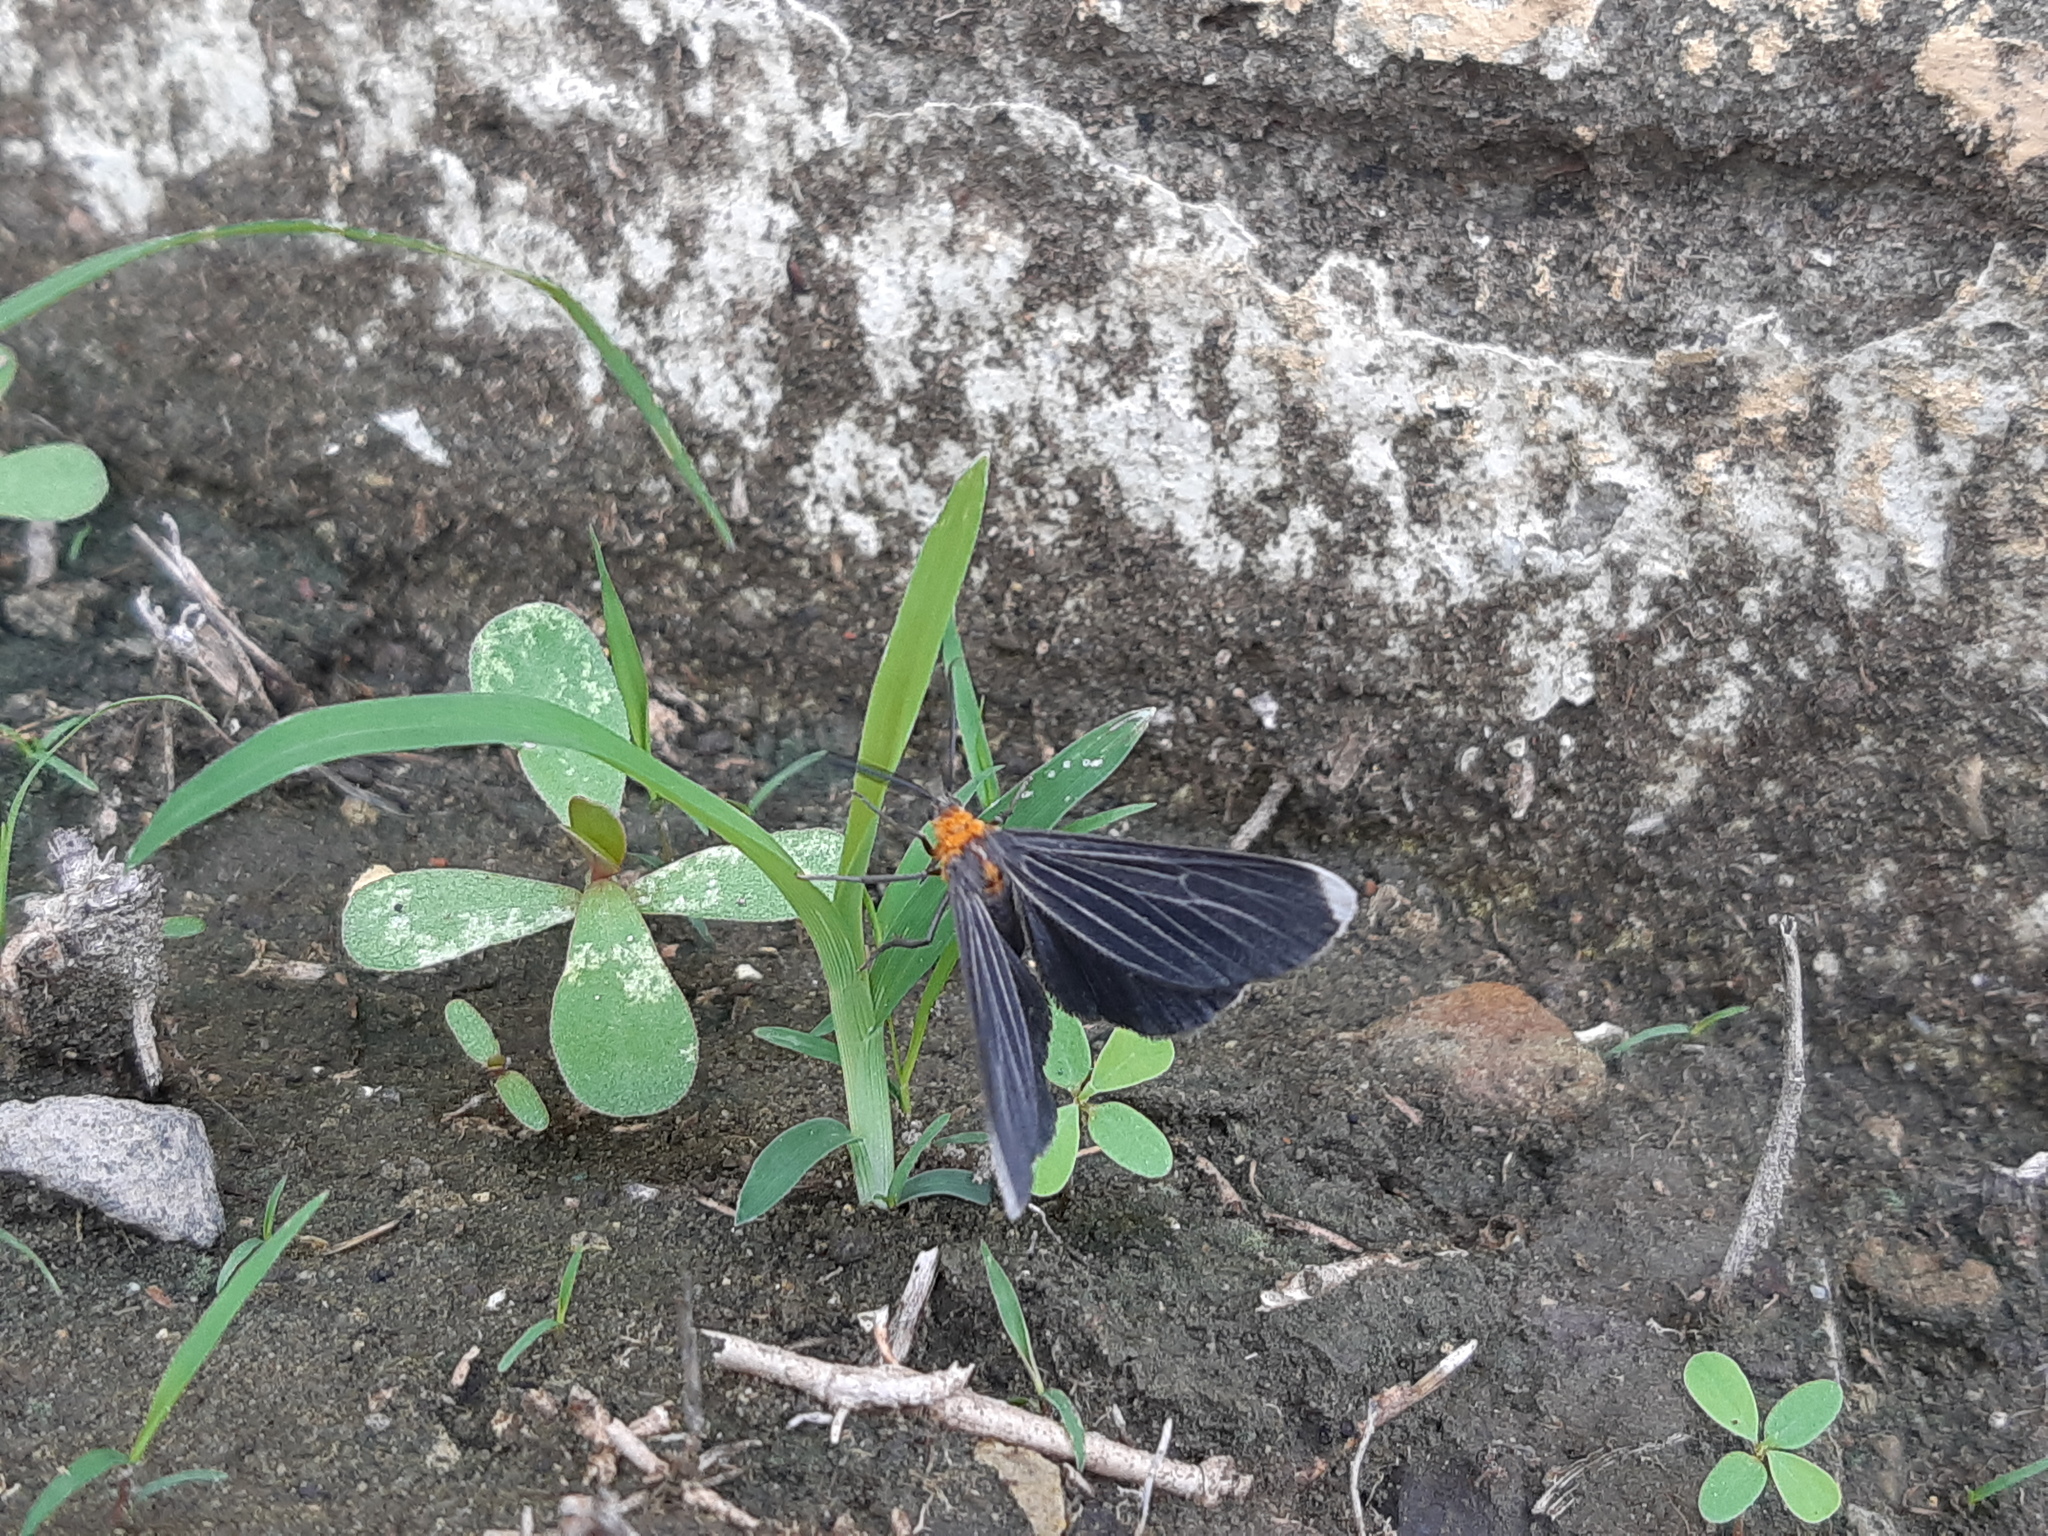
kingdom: Animalia
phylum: Arthropoda
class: Insecta
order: Lepidoptera
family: Geometridae
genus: Melanchroia
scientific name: Melanchroia chephise
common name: White-tipped black
